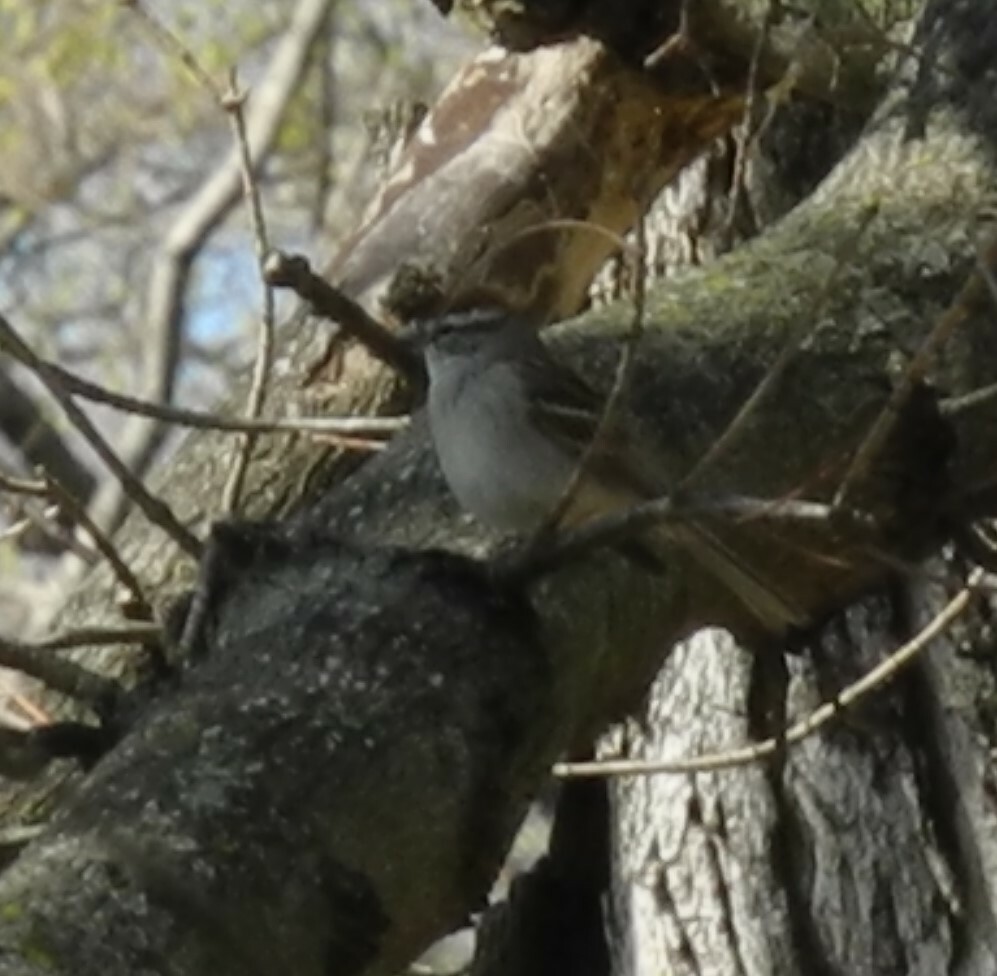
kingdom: Animalia
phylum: Chordata
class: Aves
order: Passeriformes
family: Passerellidae
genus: Spizella
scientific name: Spizella passerina
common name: Chipping sparrow
